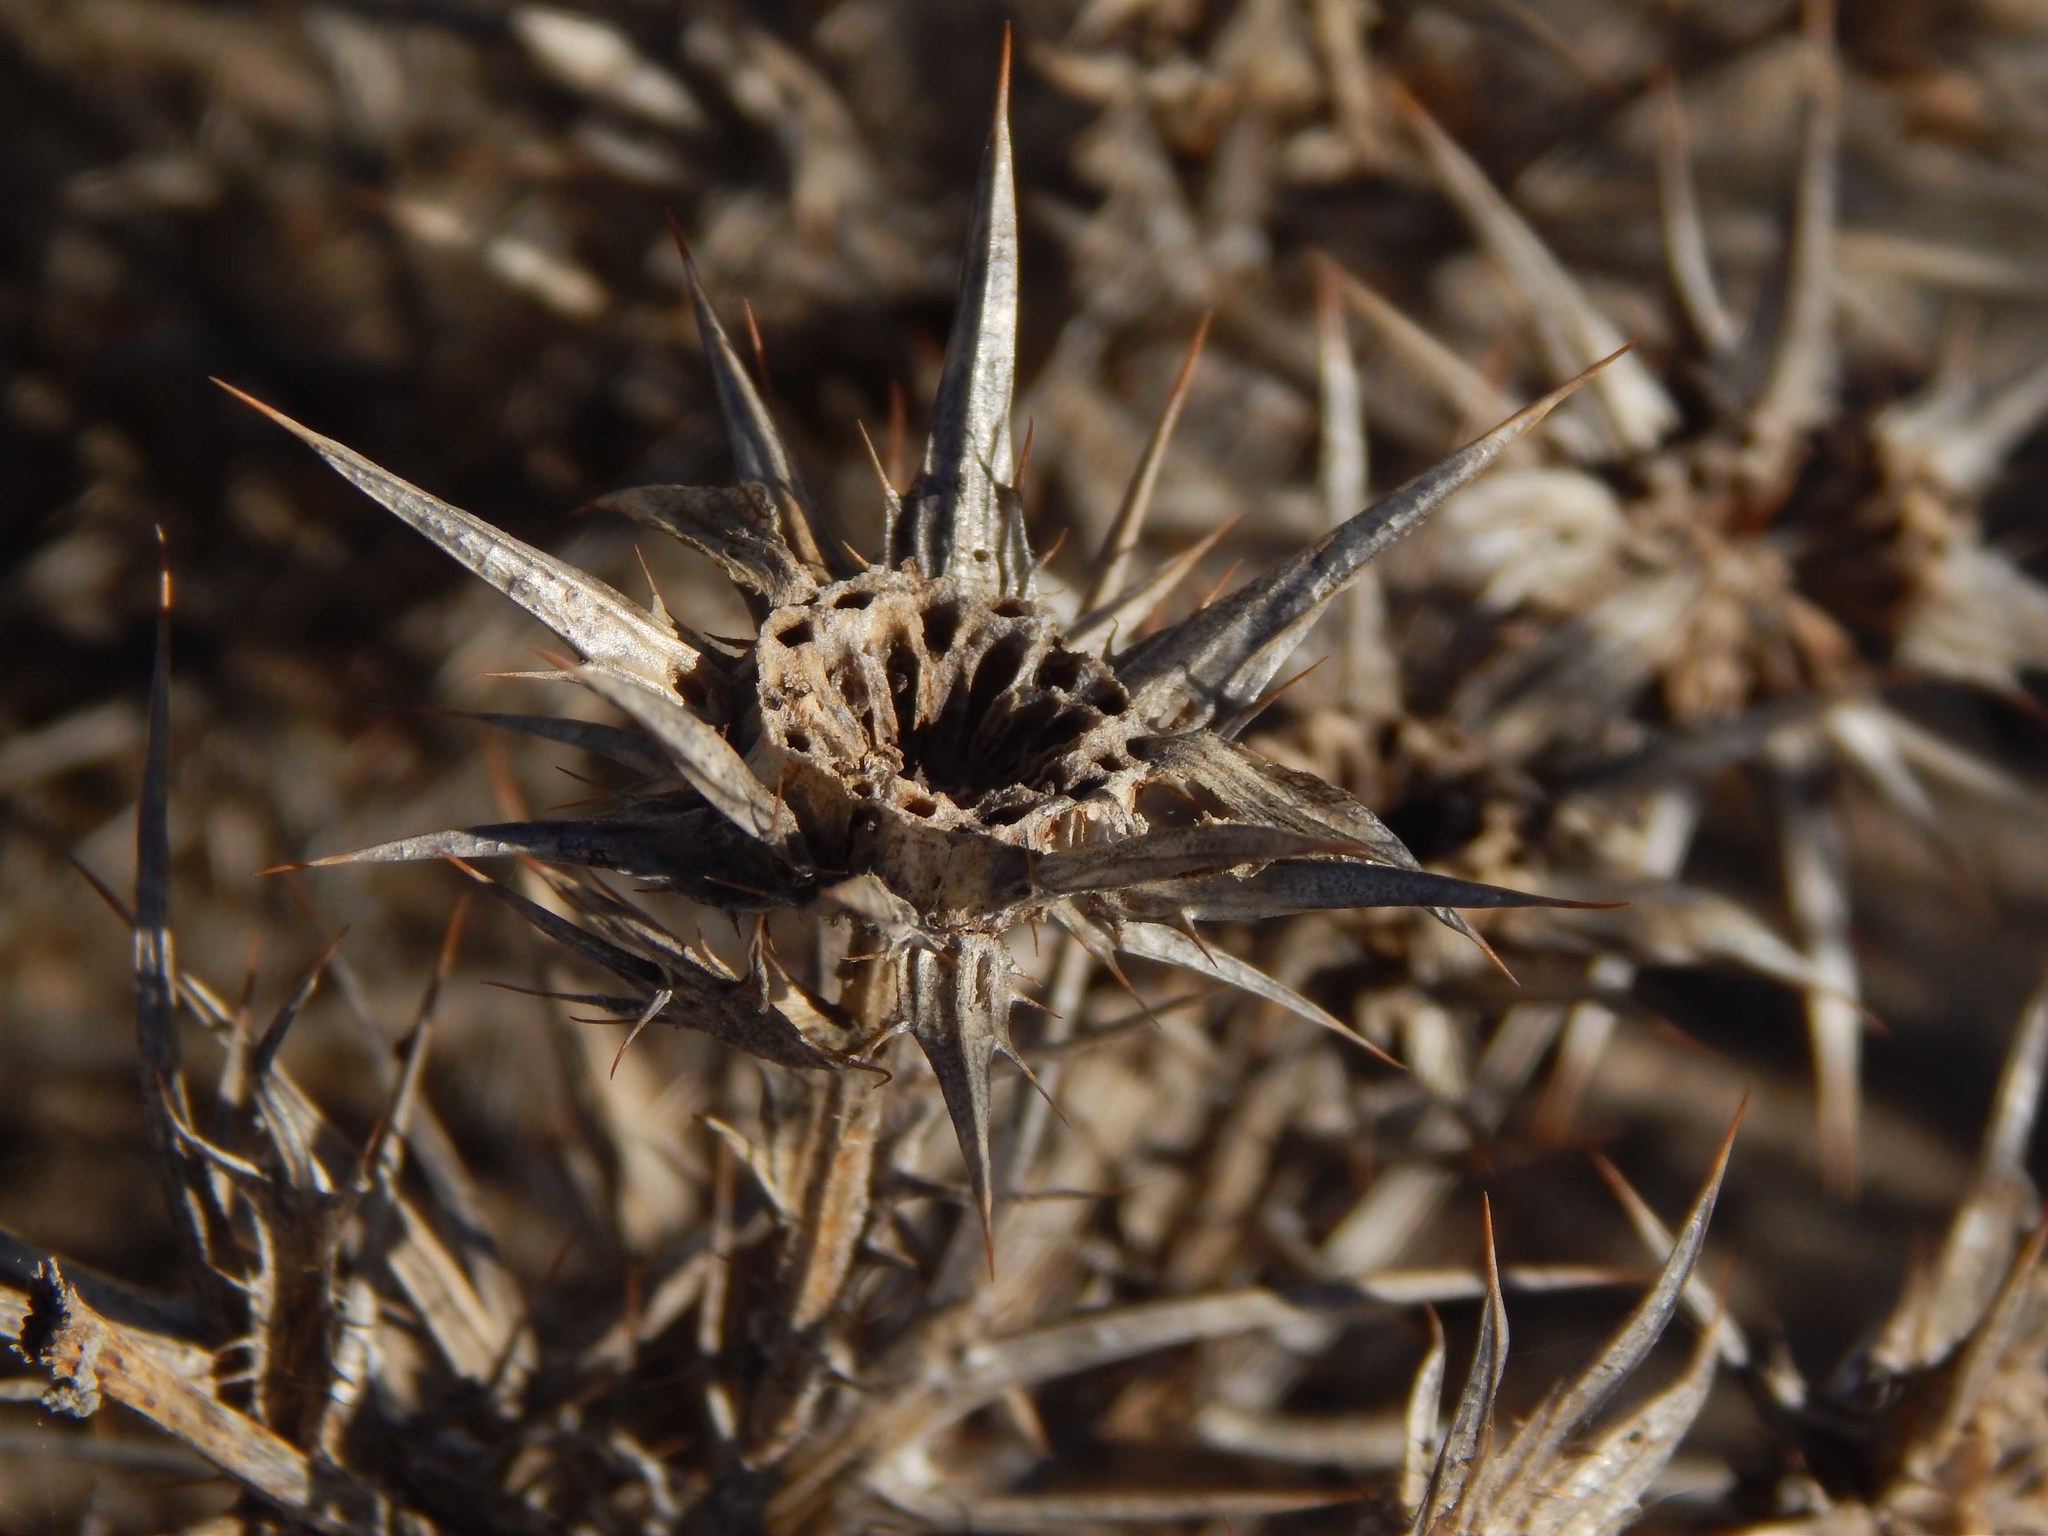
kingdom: Plantae
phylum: Tracheophyta
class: Magnoliopsida
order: Asterales
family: Asteraceae
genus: Heterorhachis
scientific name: Heterorhachis aculeata
